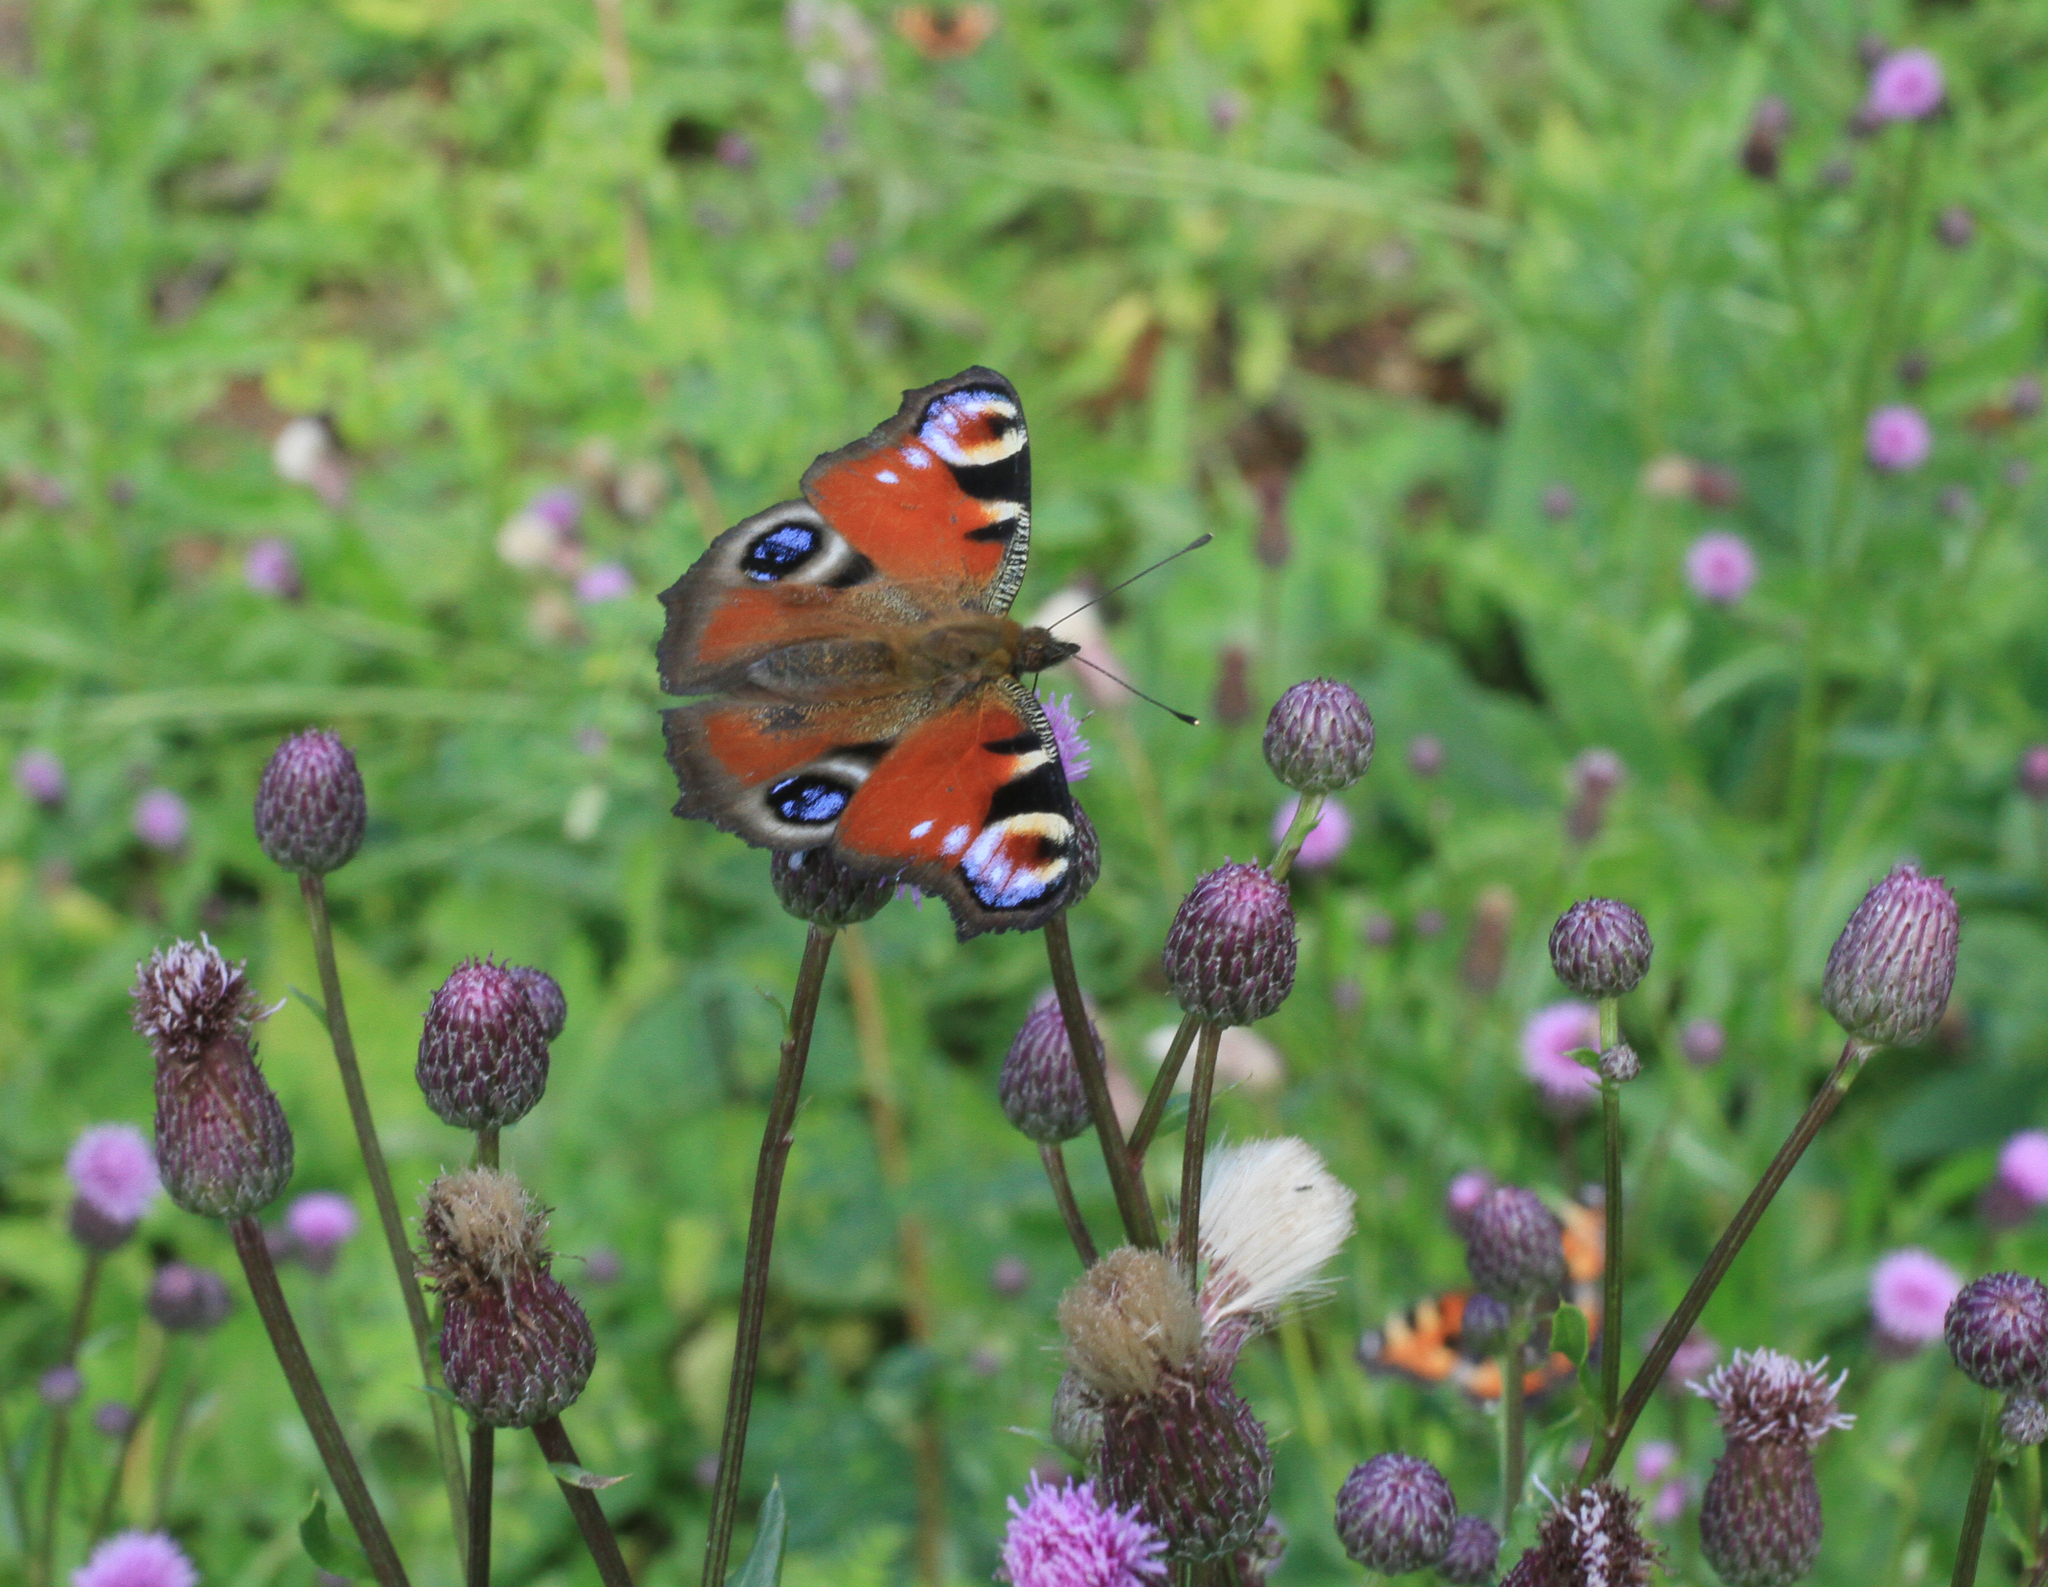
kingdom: Animalia
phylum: Arthropoda
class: Insecta
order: Lepidoptera
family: Nymphalidae
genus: Aglais
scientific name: Aglais io
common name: Peacock
